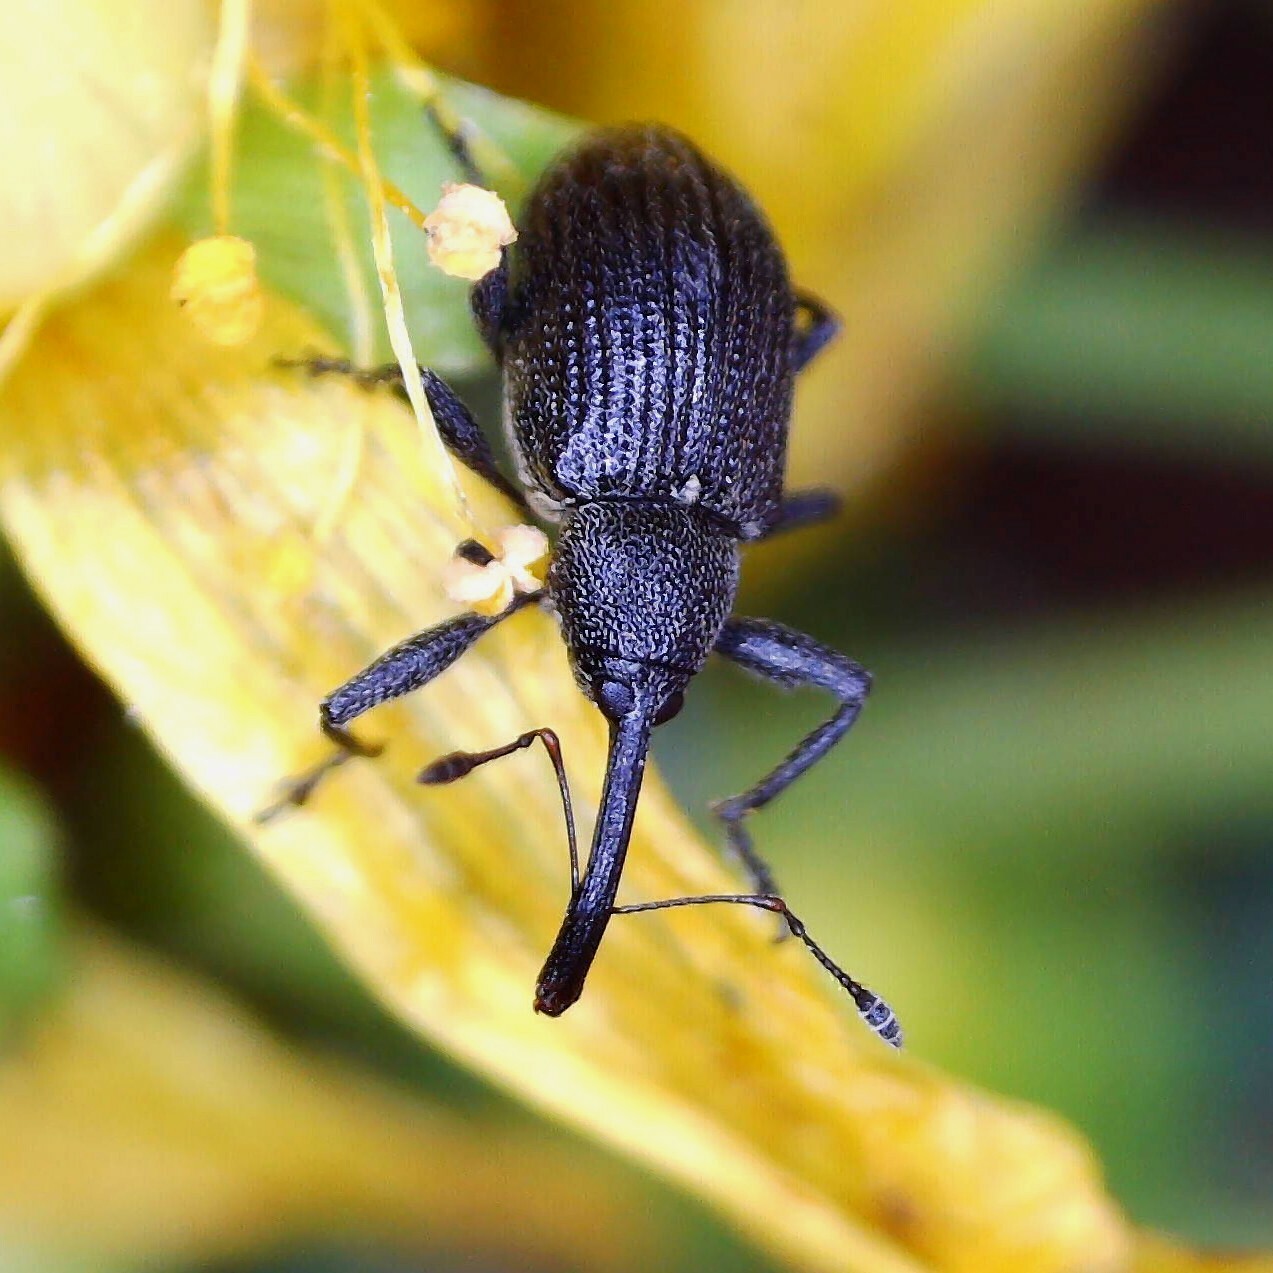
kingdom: Animalia
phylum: Arthropoda
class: Insecta
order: Coleoptera
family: Curculionidae
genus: Anthonomus
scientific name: Anthonomus rubi
